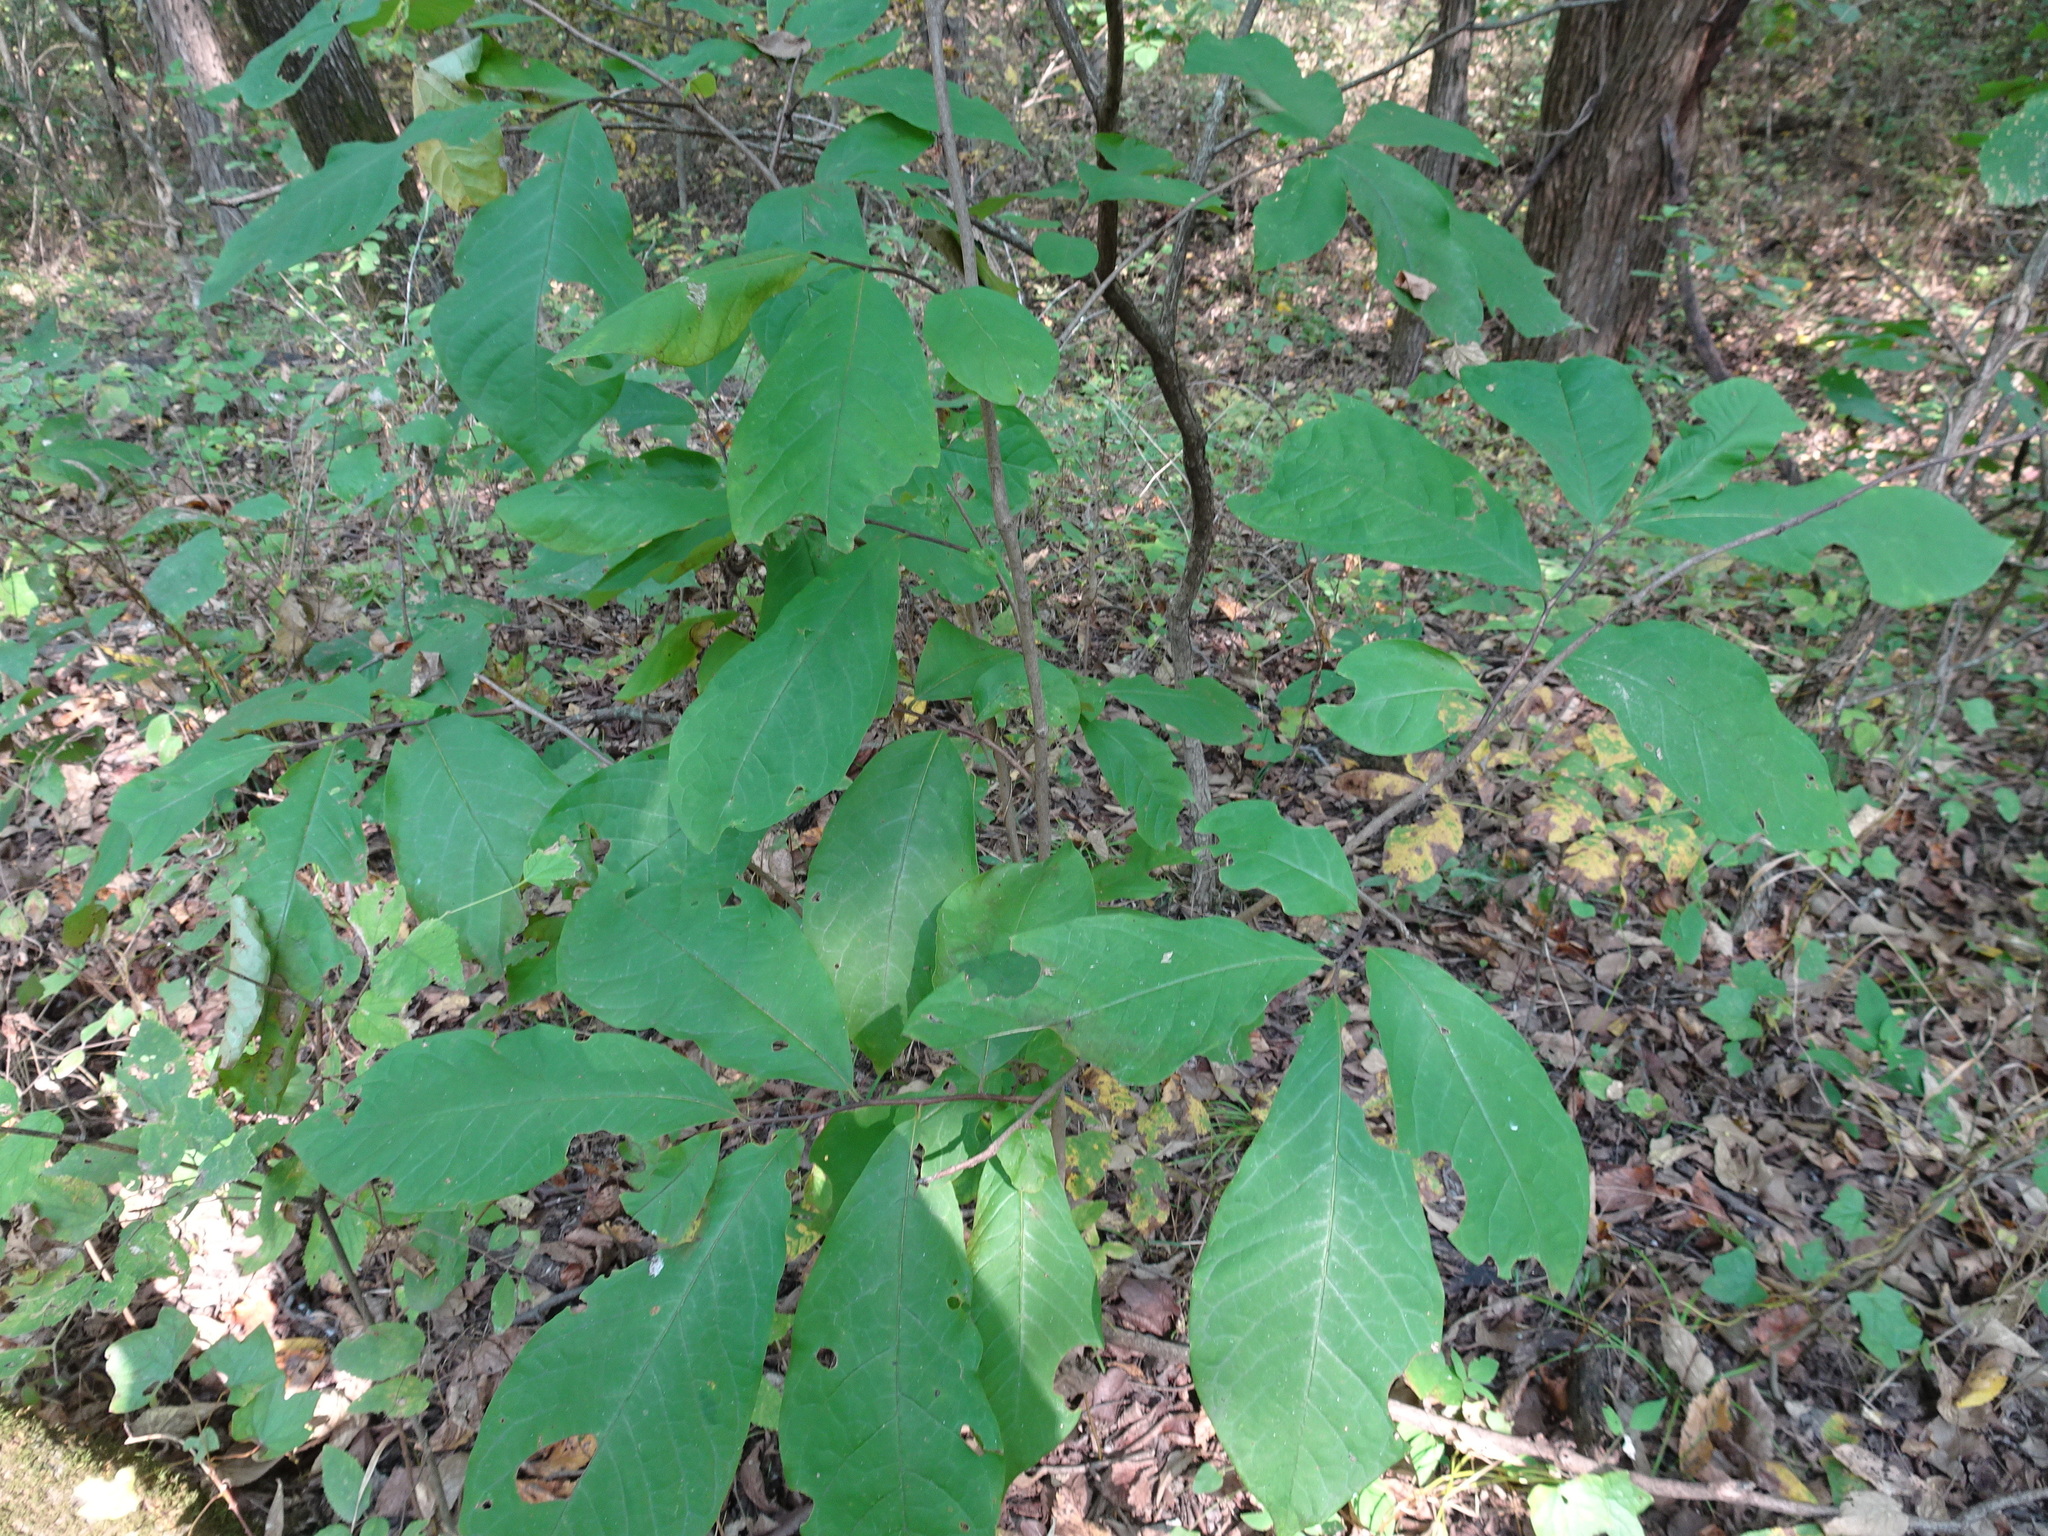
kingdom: Plantae
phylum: Tracheophyta
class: Magnoliopsida
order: Magnoliales
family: Annonaceae
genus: Asimina
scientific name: Asimina triloba
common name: Dog-banana
